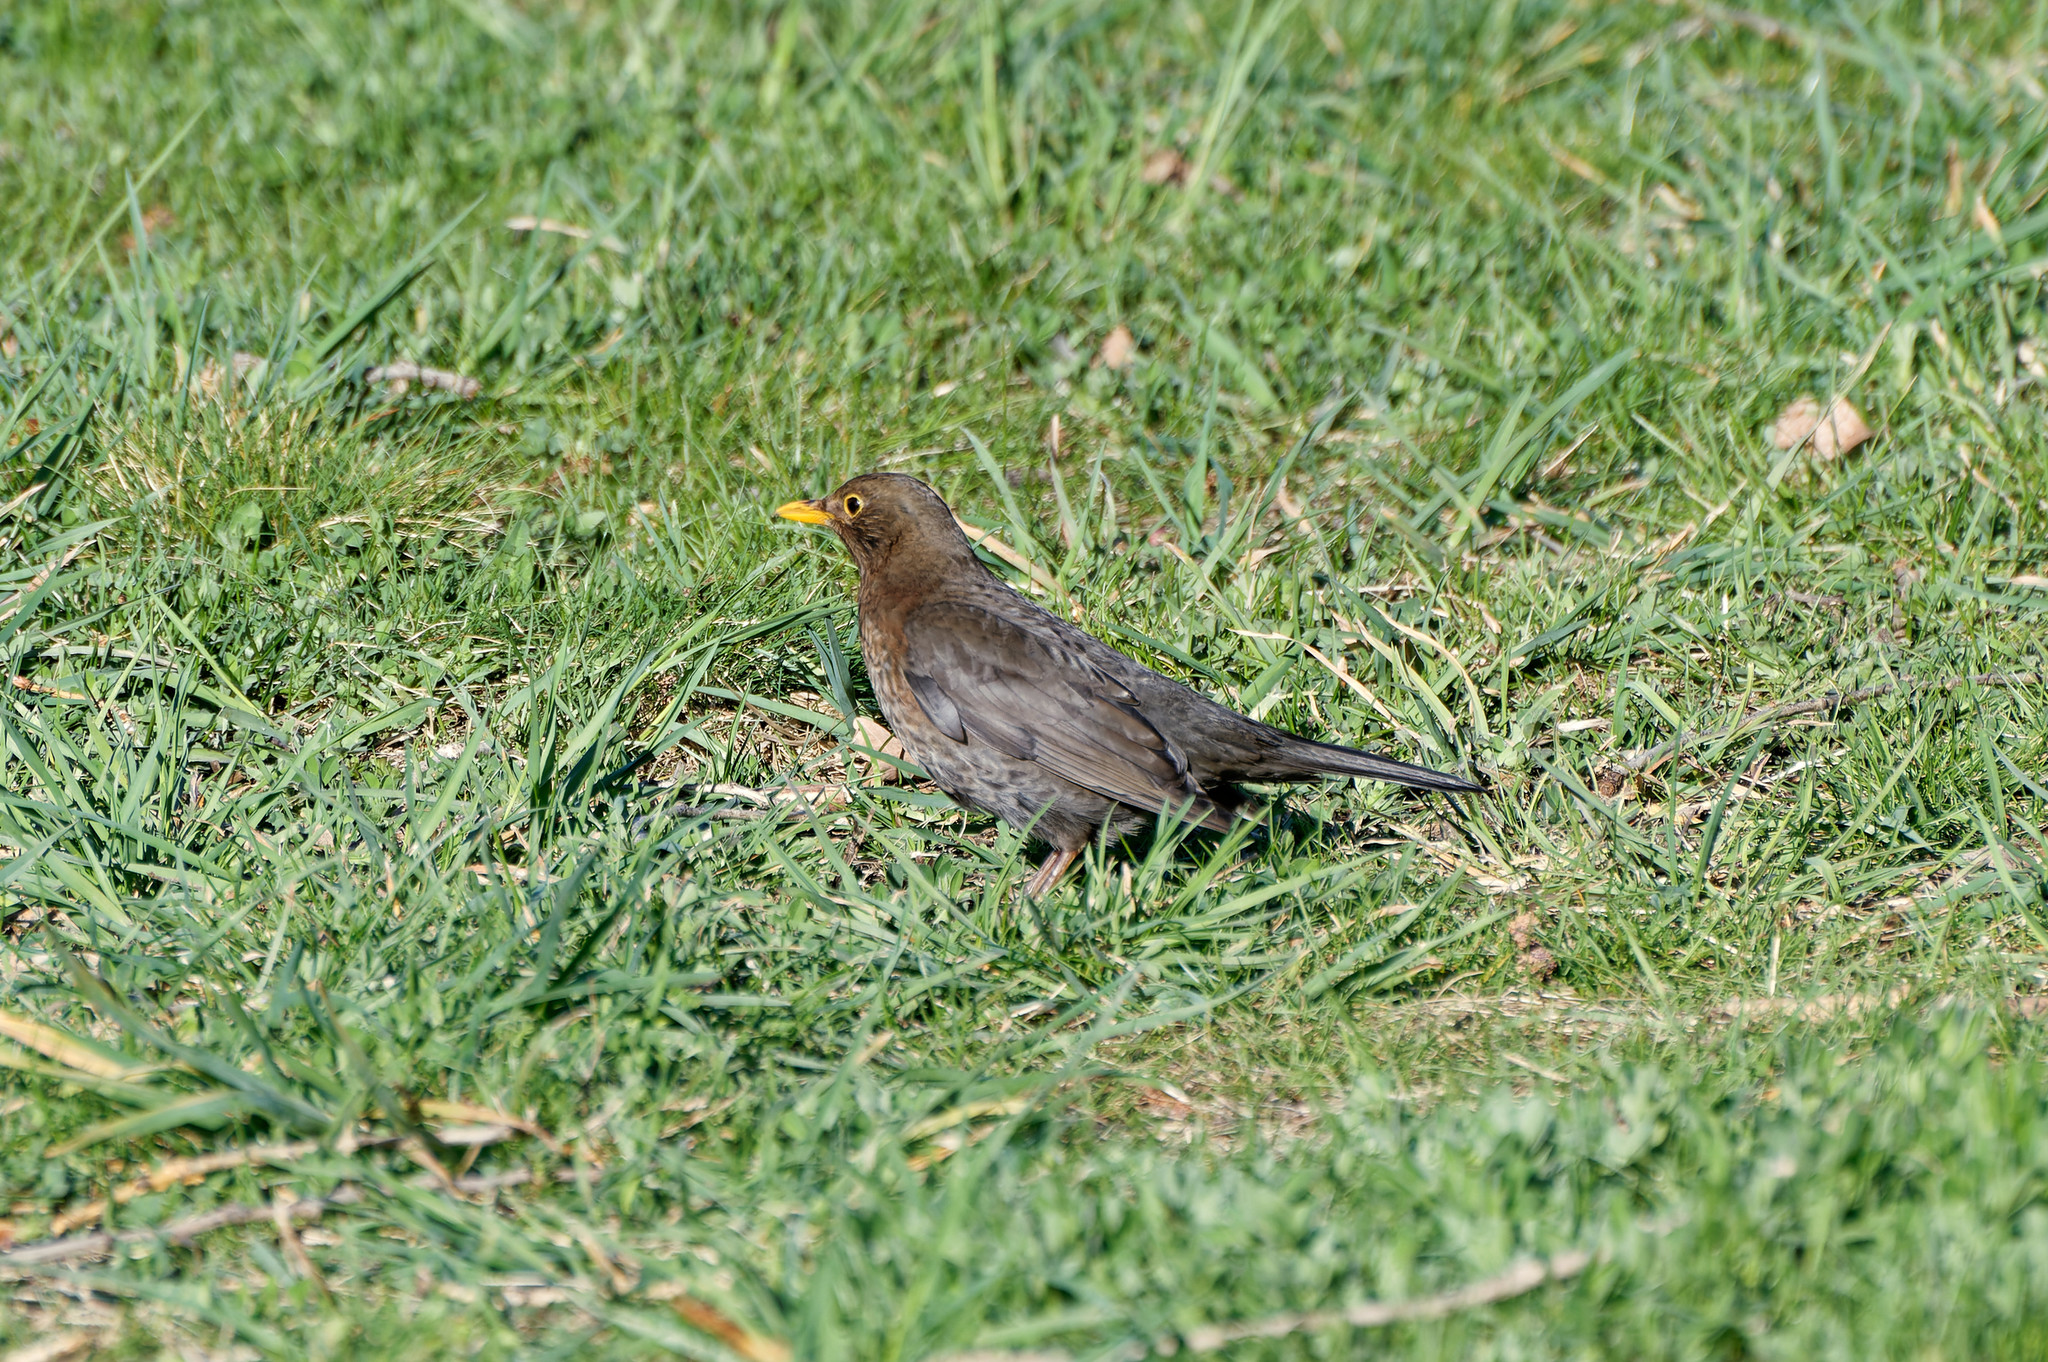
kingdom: Animalia
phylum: Chordata
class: Aves
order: Passeriformes
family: Turdidae
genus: Turdus
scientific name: Turdus merula
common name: Common blackbird
